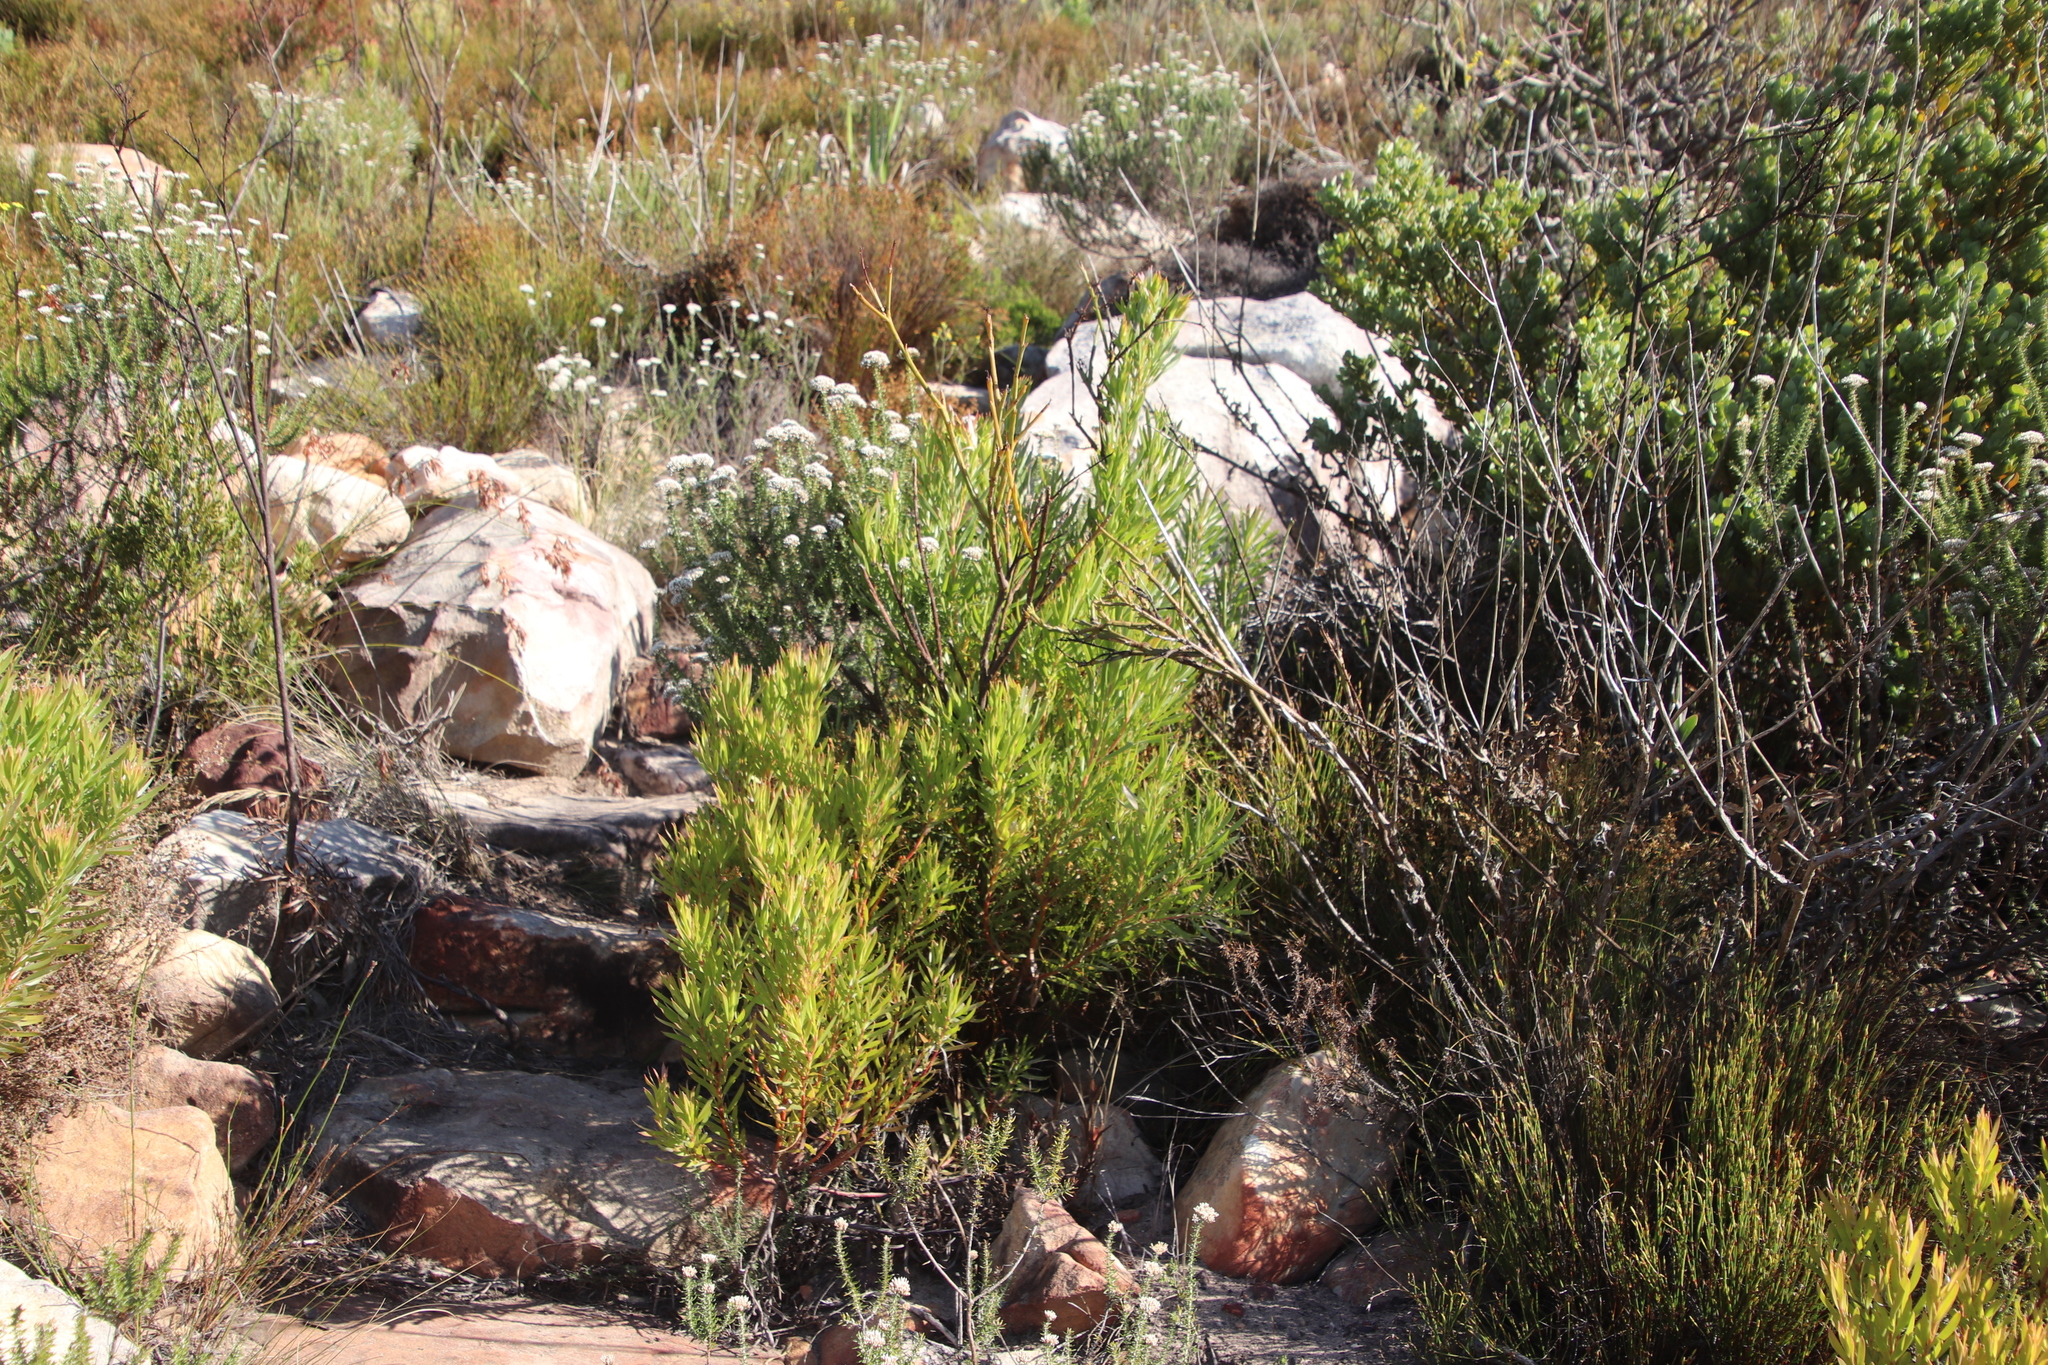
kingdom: Plantae
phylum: Tracheophyta
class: Magnoliopsida
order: Proteales
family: Proteaceae
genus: Leucadendron
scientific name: Leucadendron xanthoconus
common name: Sickle-leaf conebush
